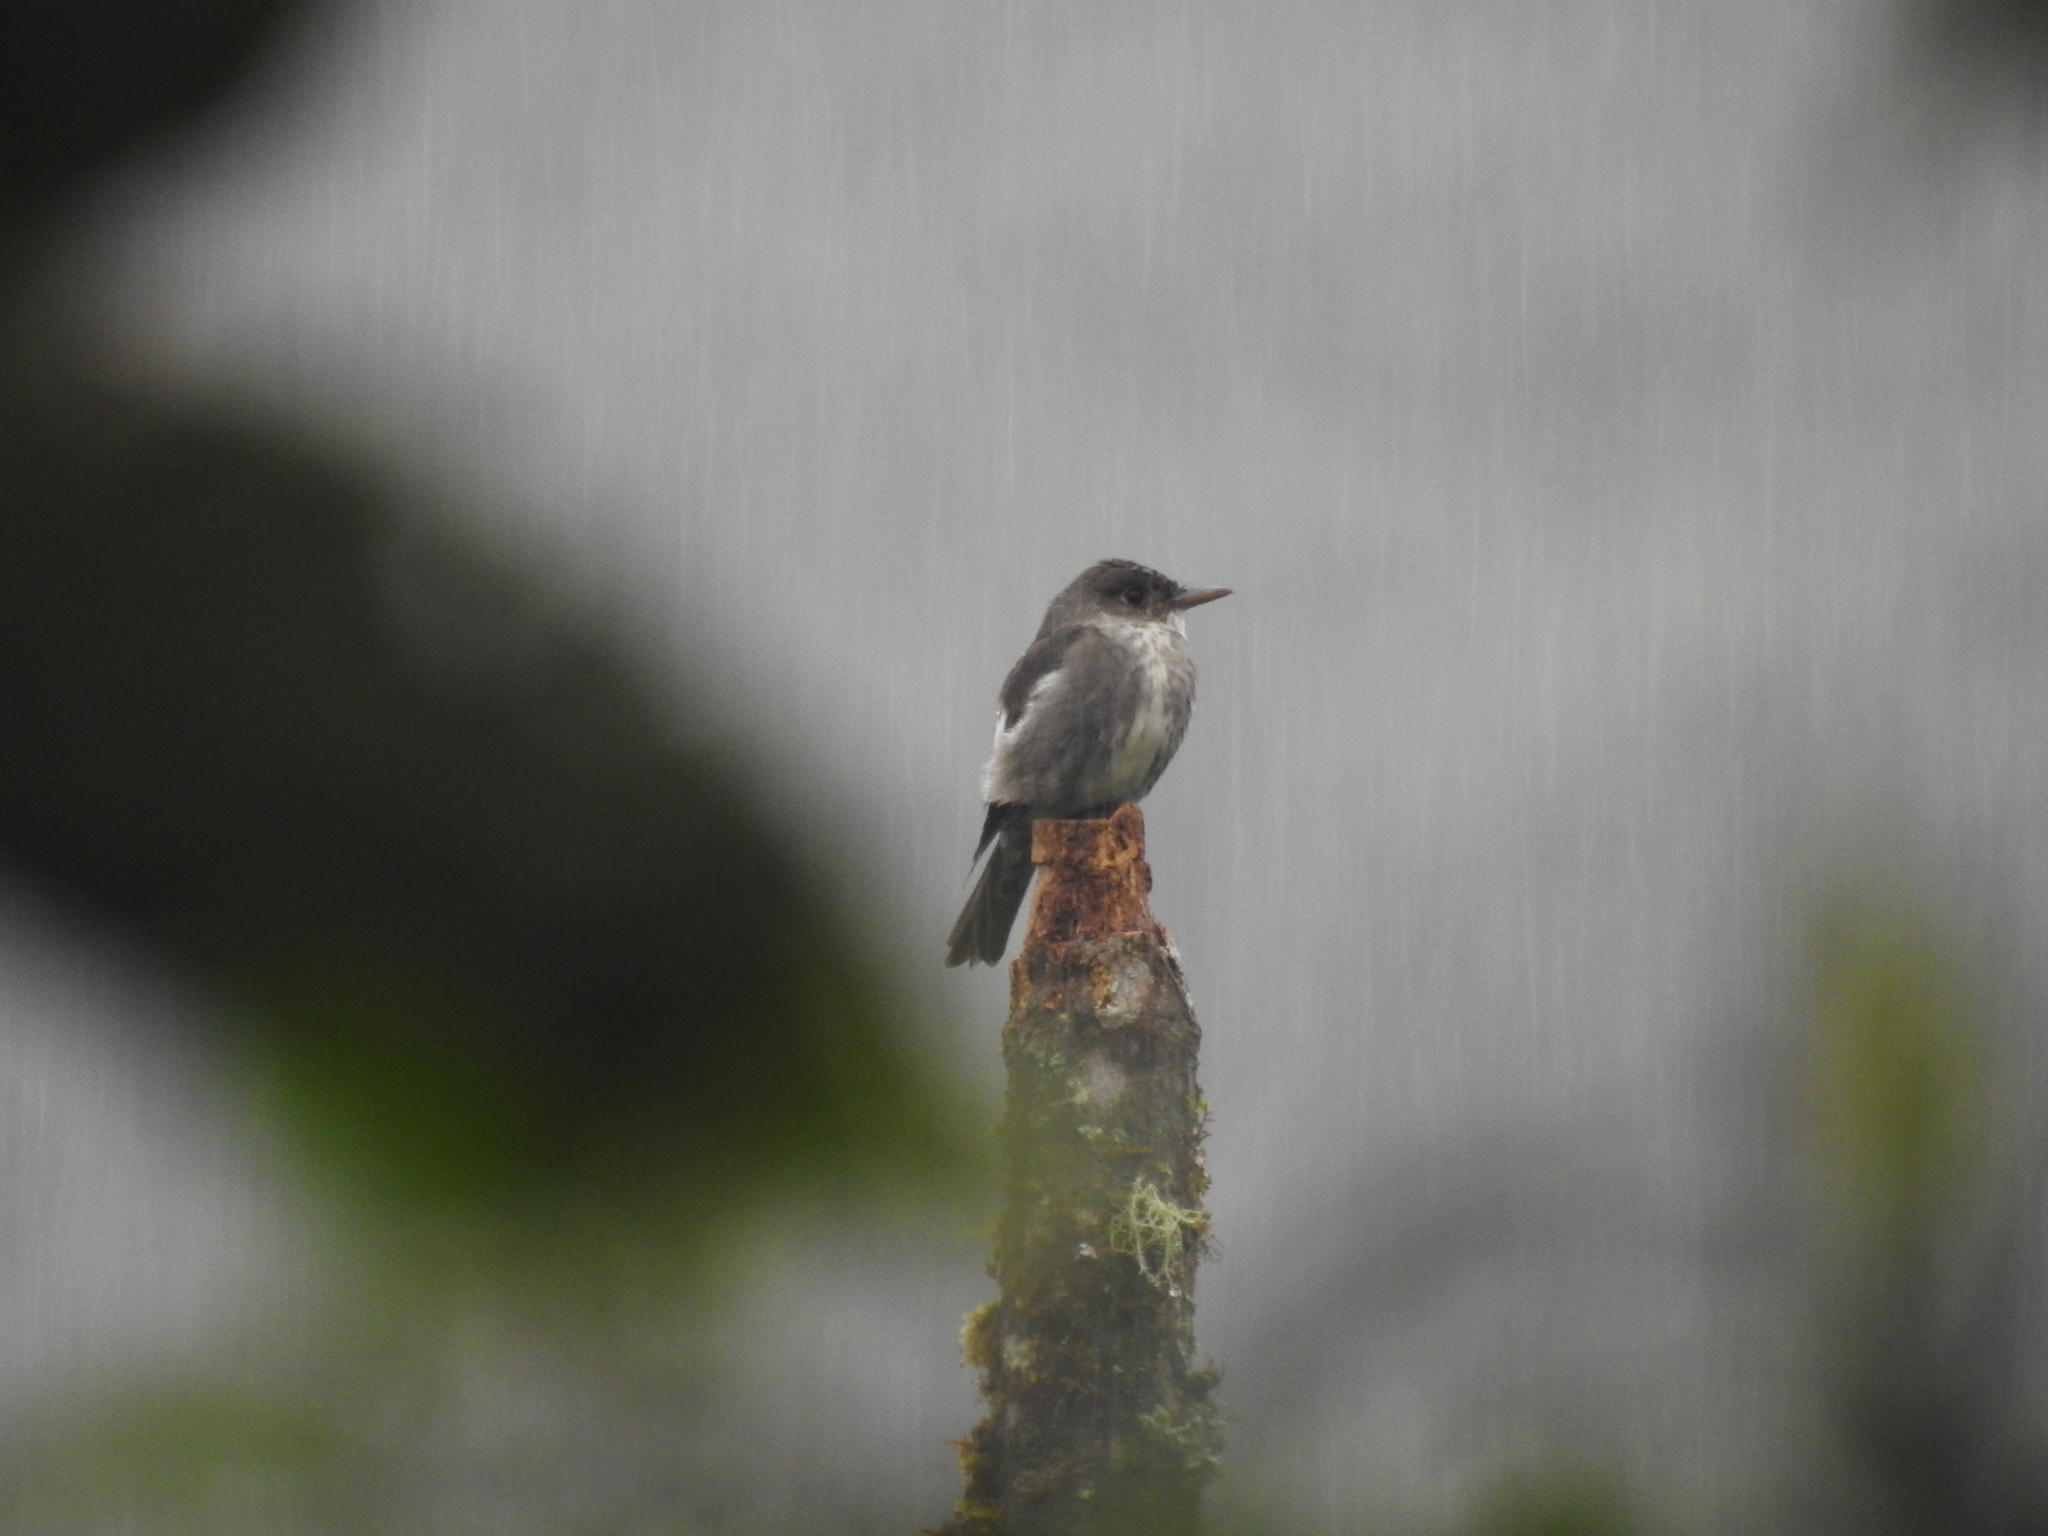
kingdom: Animalia
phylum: Chordata
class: Aves
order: Passeriformes
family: Tyrannidae
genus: Contopus
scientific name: Contopus cooperi
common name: Olive-sided flycatcher
